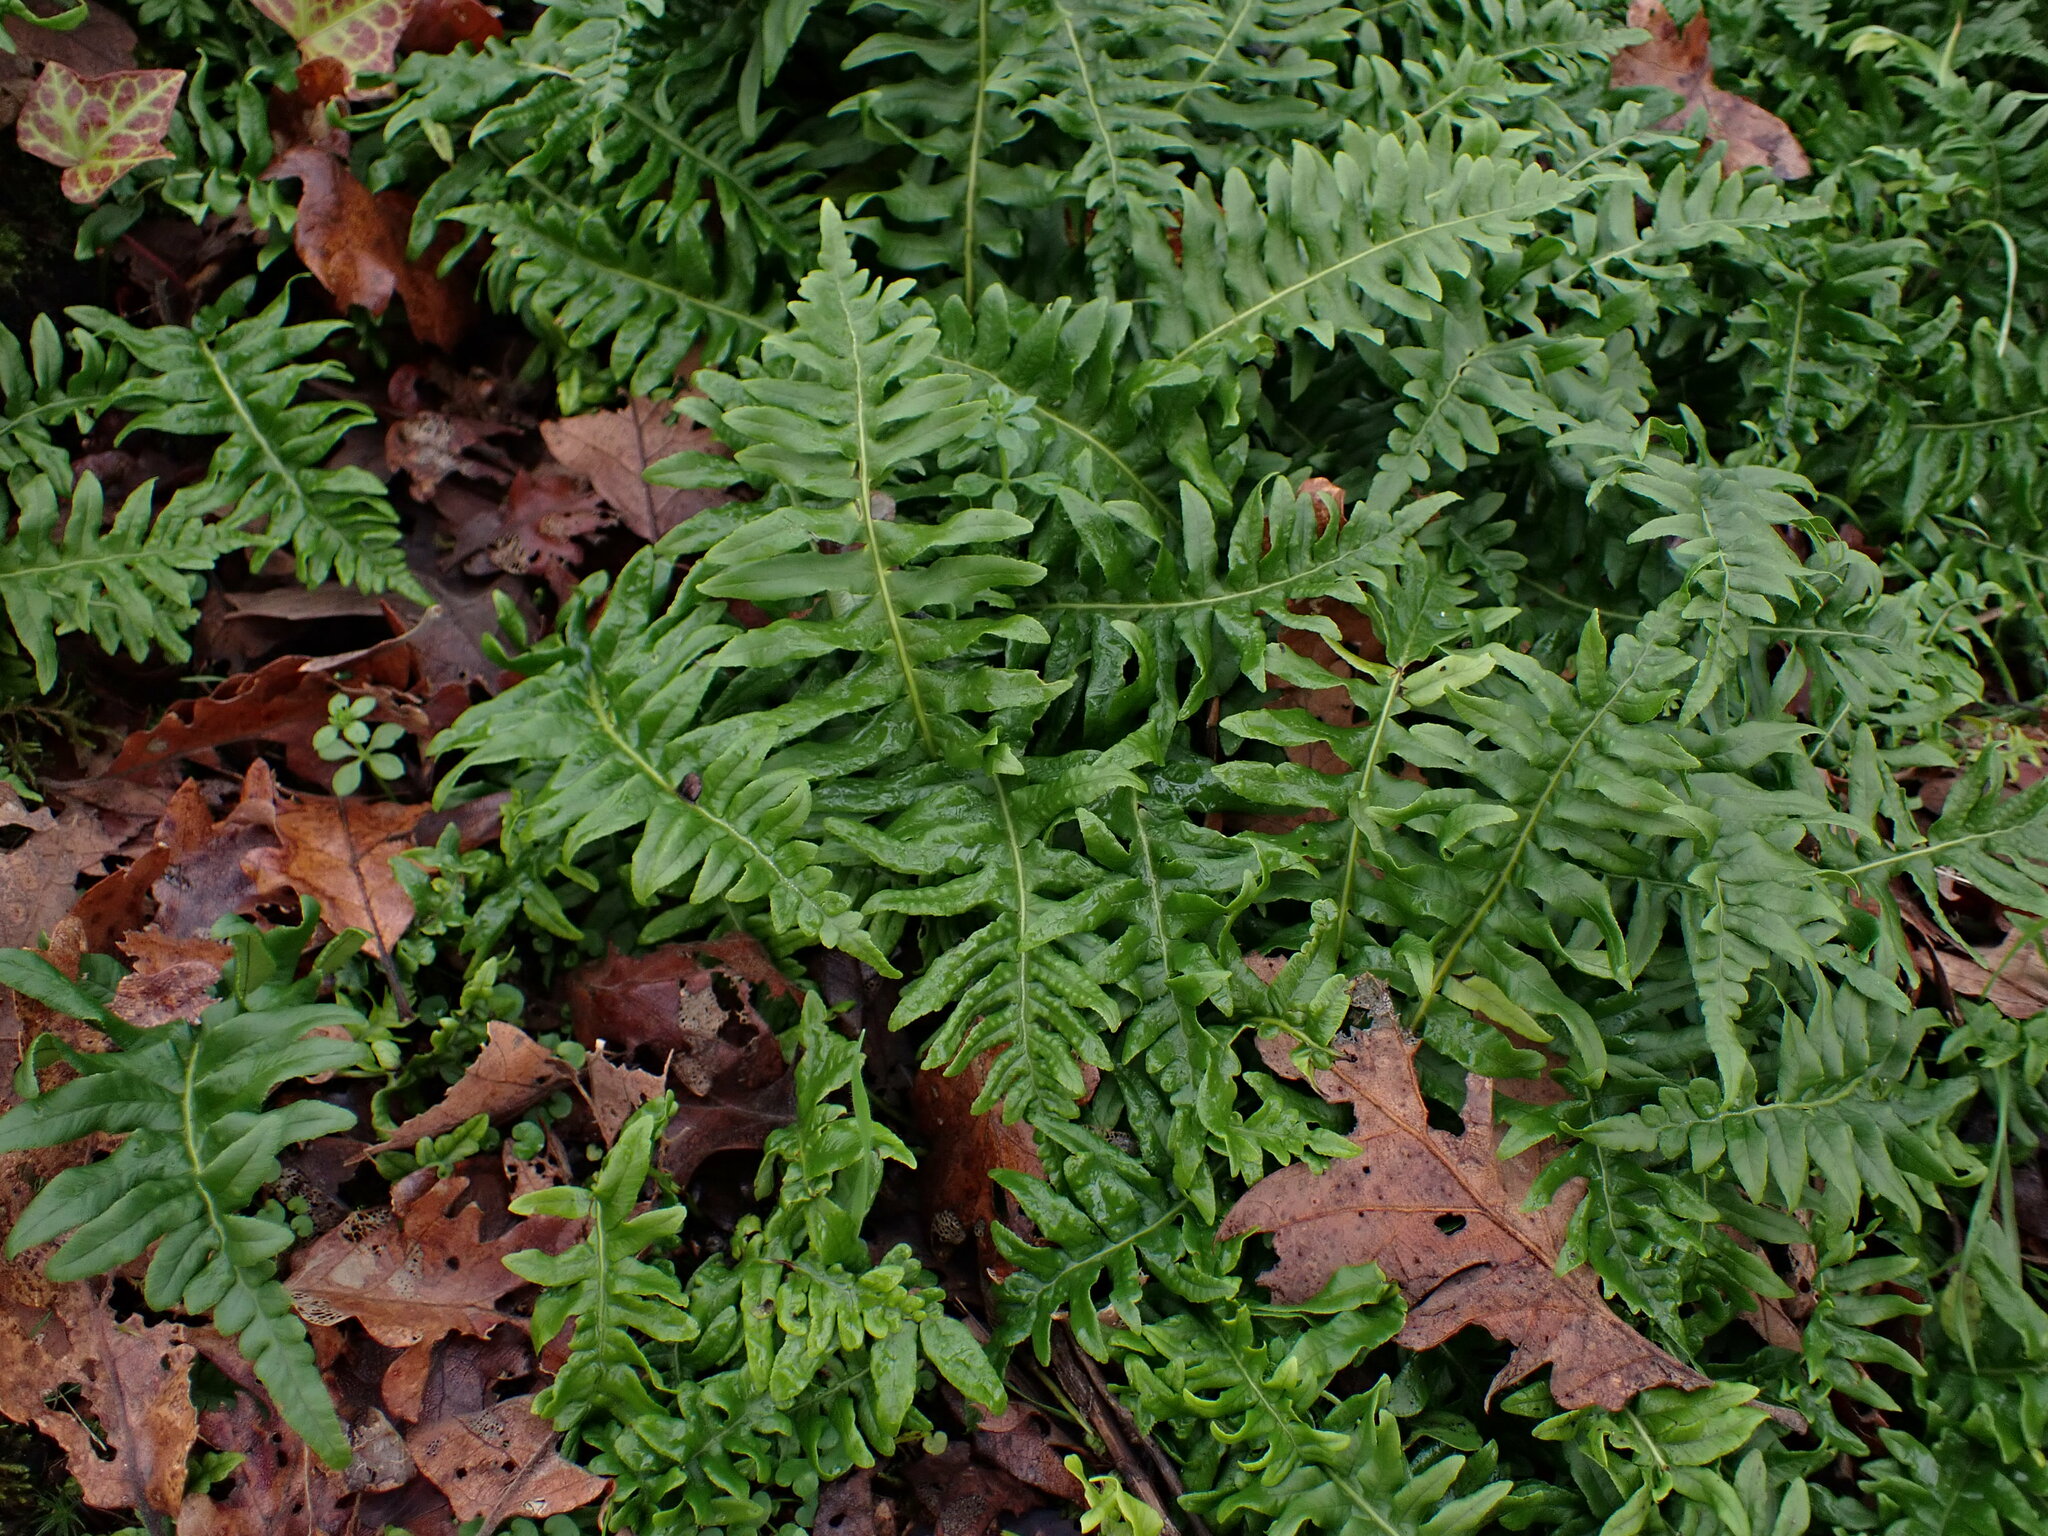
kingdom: Plantae
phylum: Tracheophyta
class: Polypodiopsida
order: Polypodiales
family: Polypodiaceae
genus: Polypodium
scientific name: Polypodium glycyrrhiza
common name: Licorice fern
